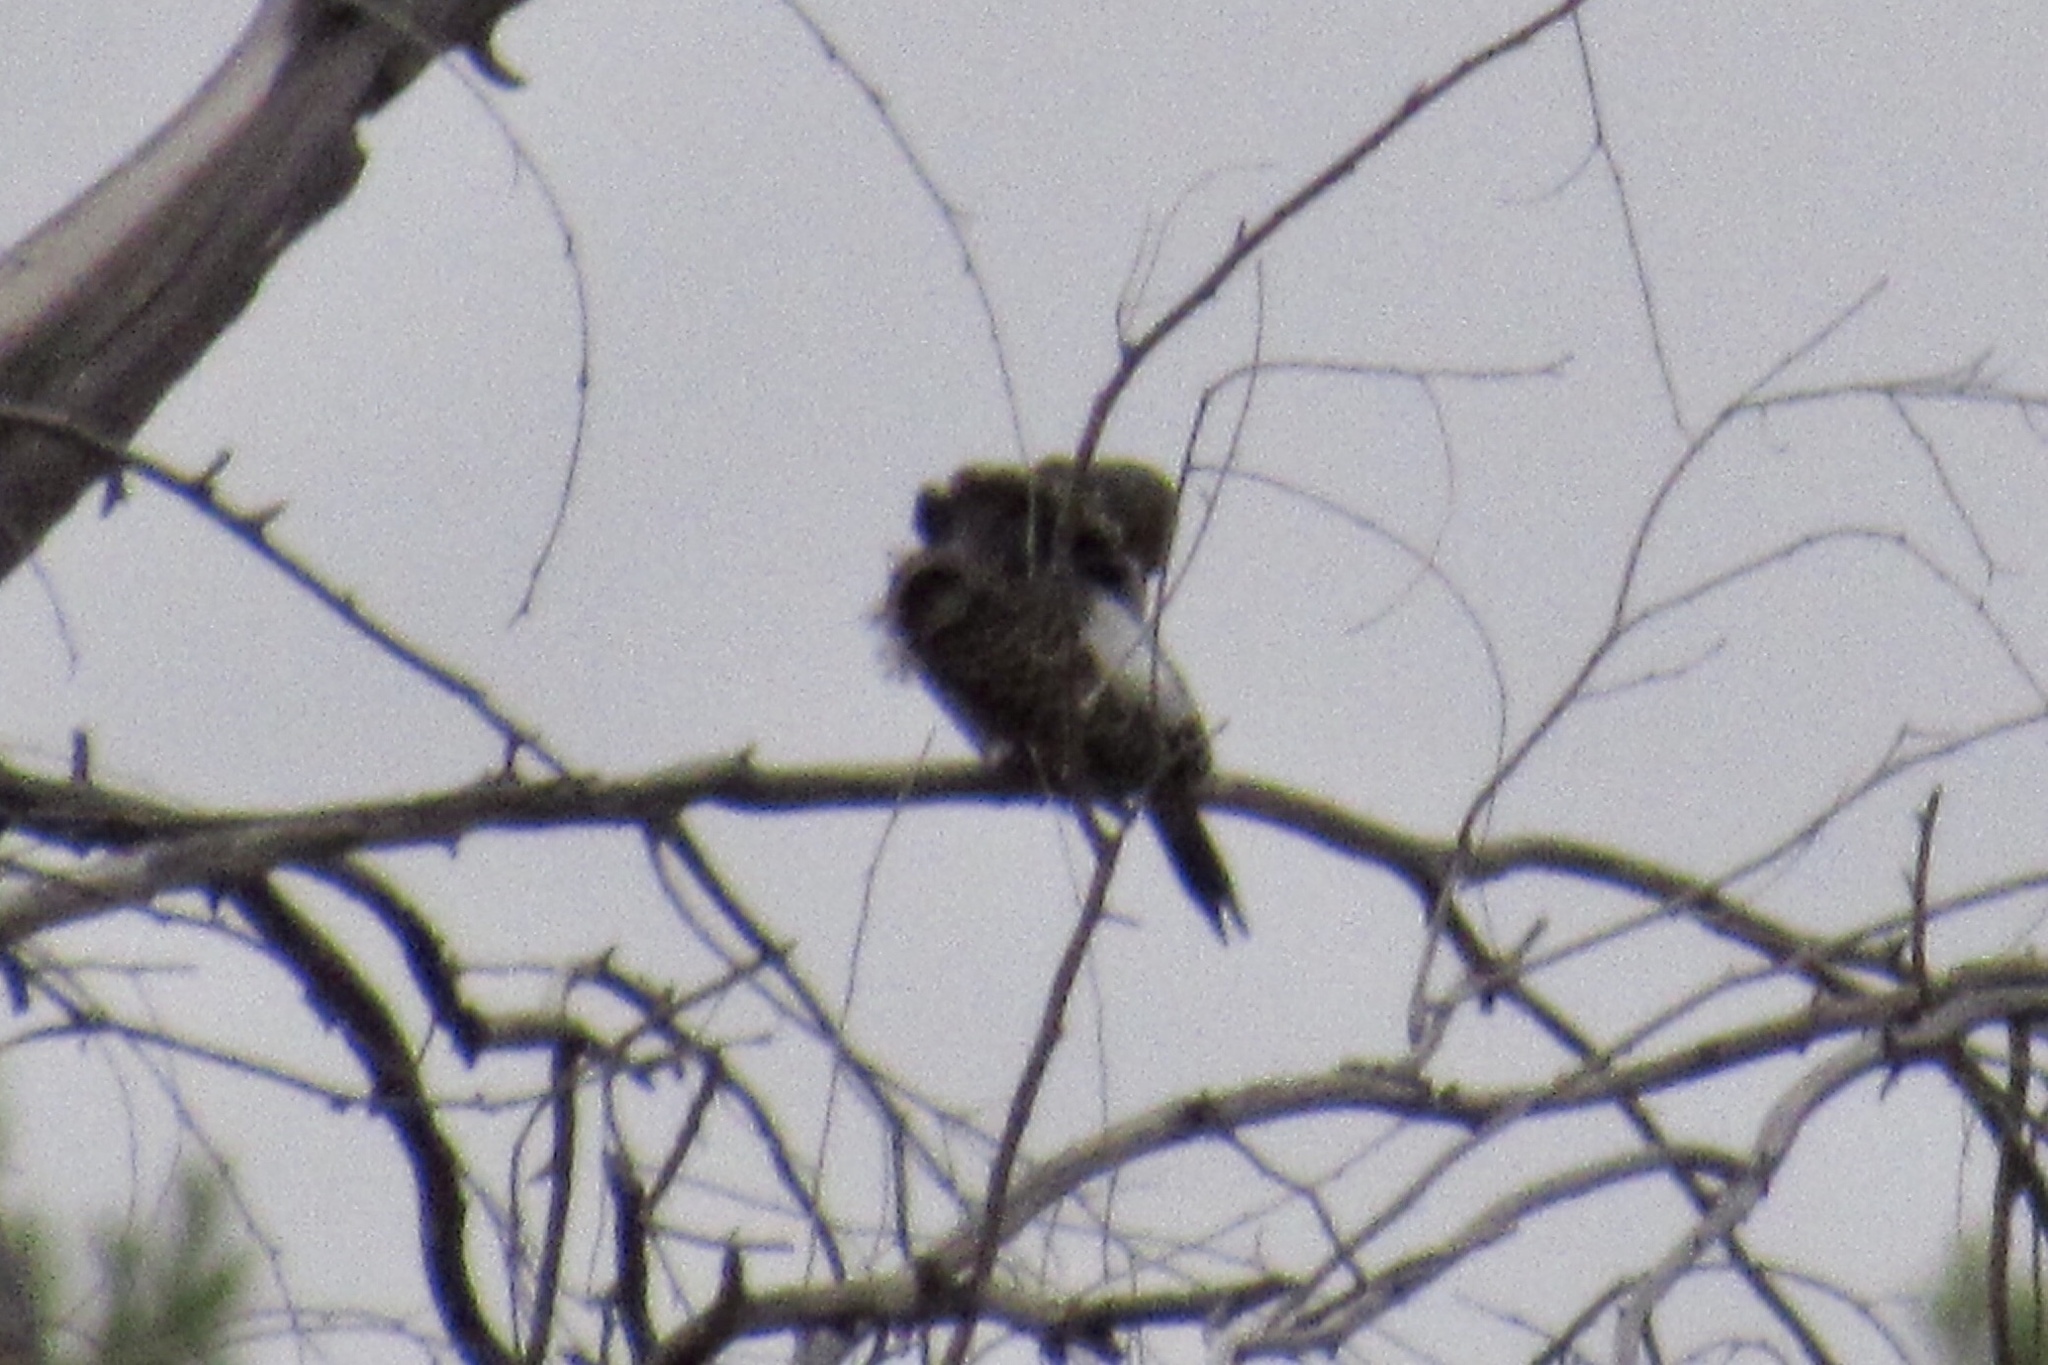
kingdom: Animalia
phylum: Chordata
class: Aves
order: Piciformes
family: Picidae
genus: Colaptes
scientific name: Colaptes auratus
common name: Northern flicker
